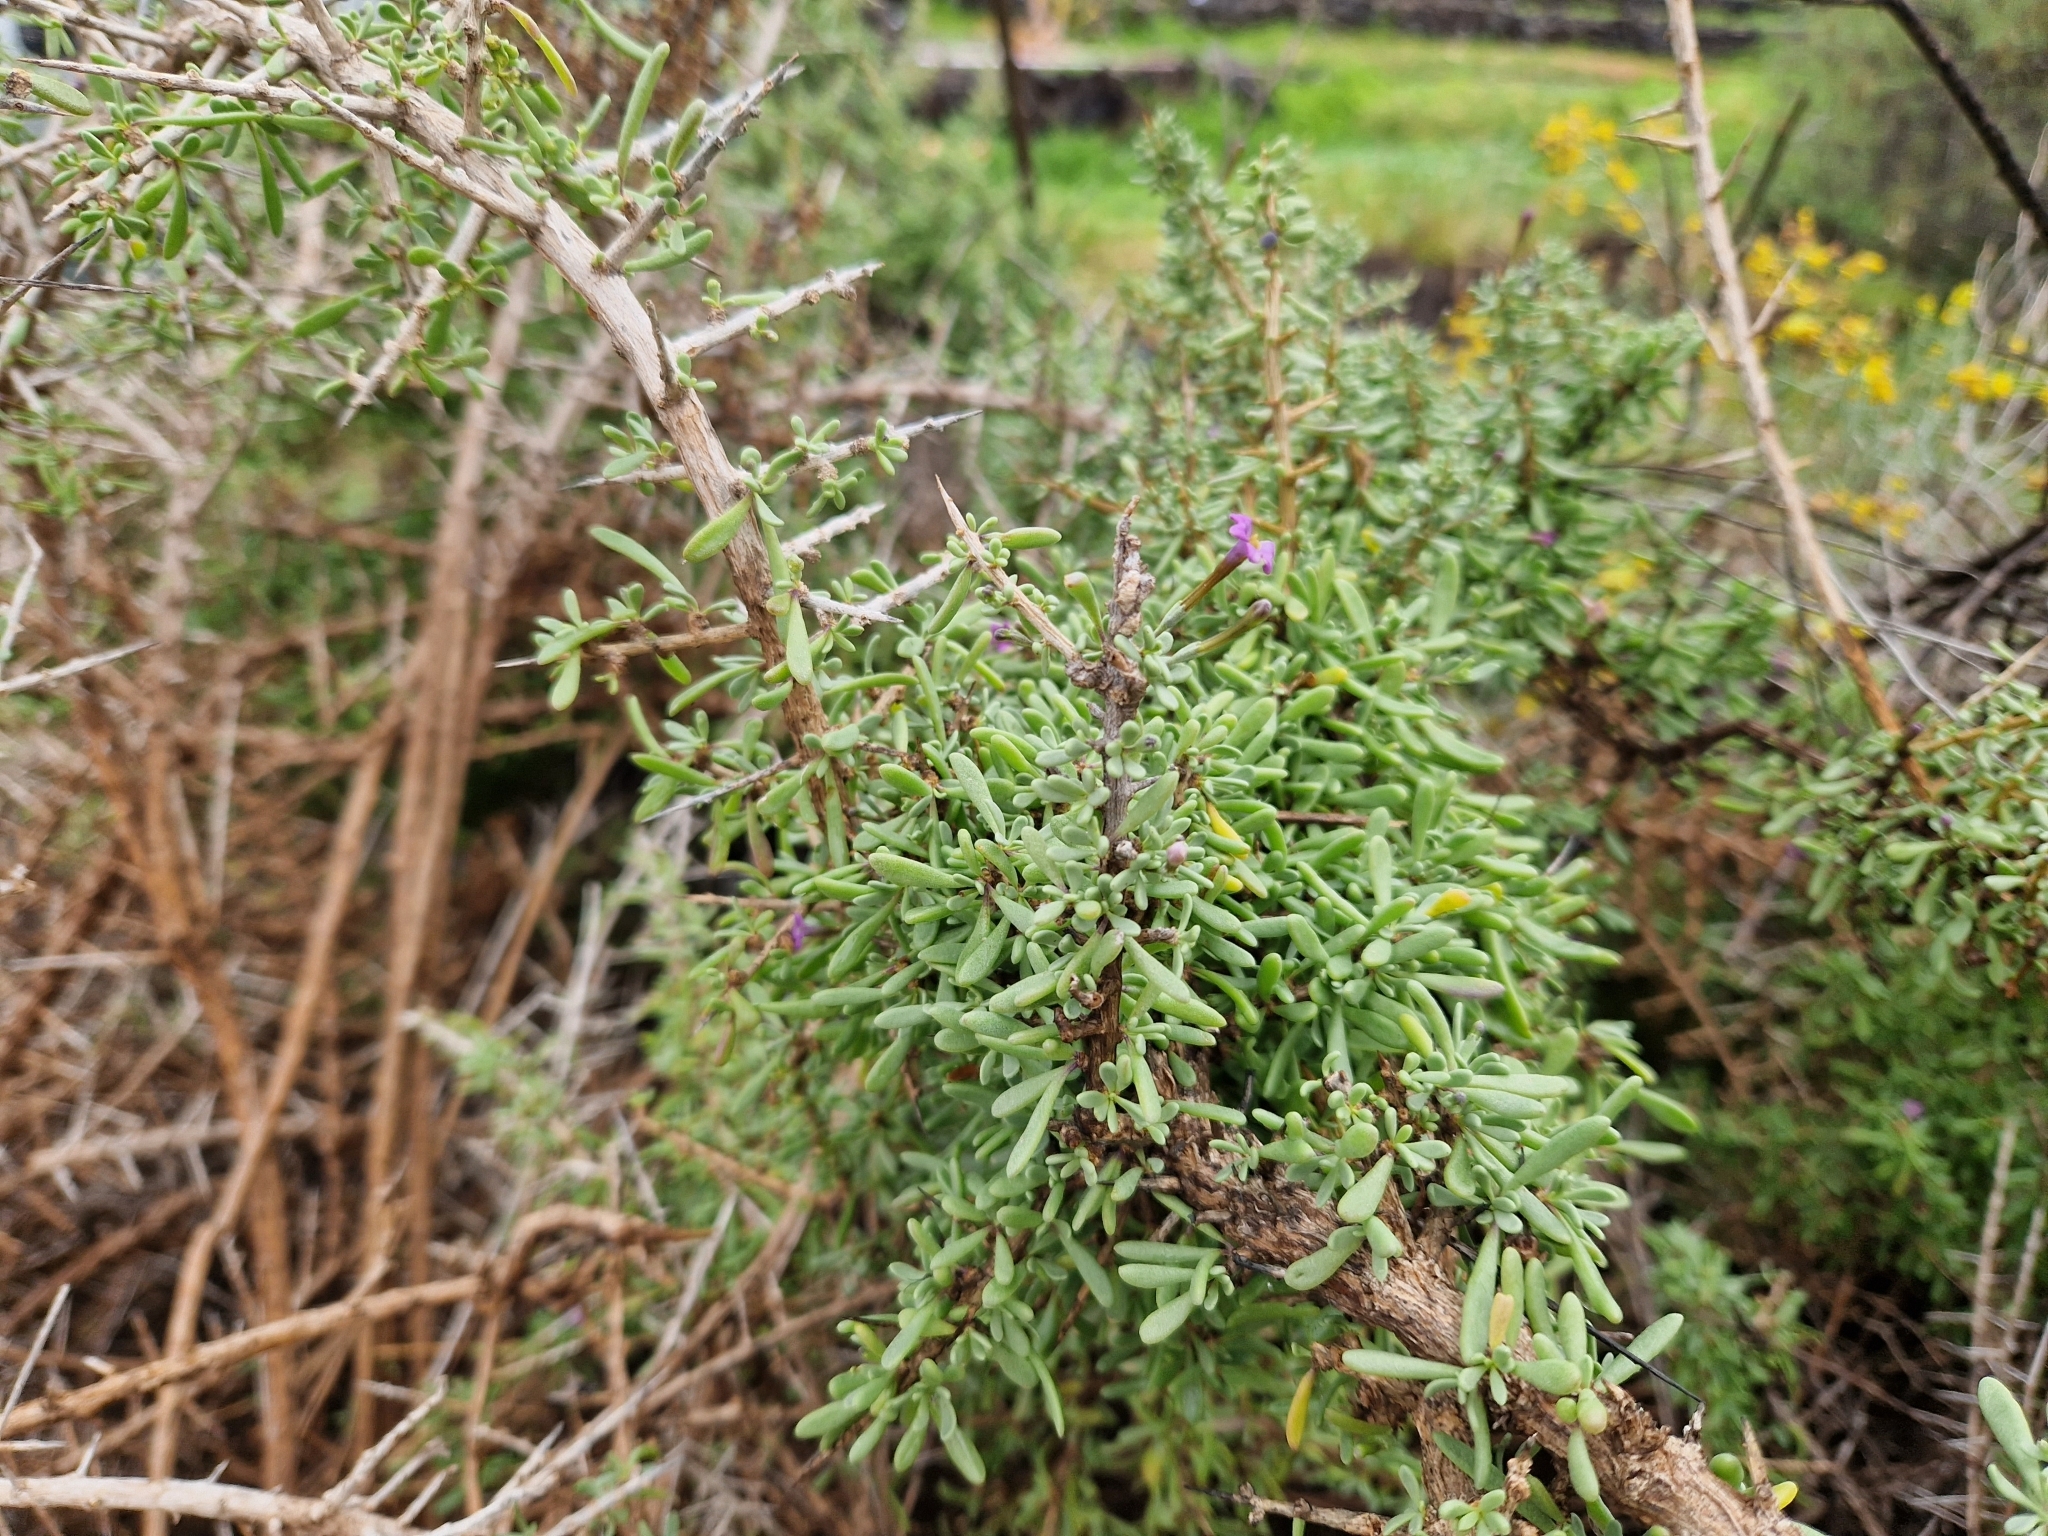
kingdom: Plantae
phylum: Tracheophyta
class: Magnoliopsida
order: Solanales
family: Solanaceae
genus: Lycium
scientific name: Lycium intricatum
